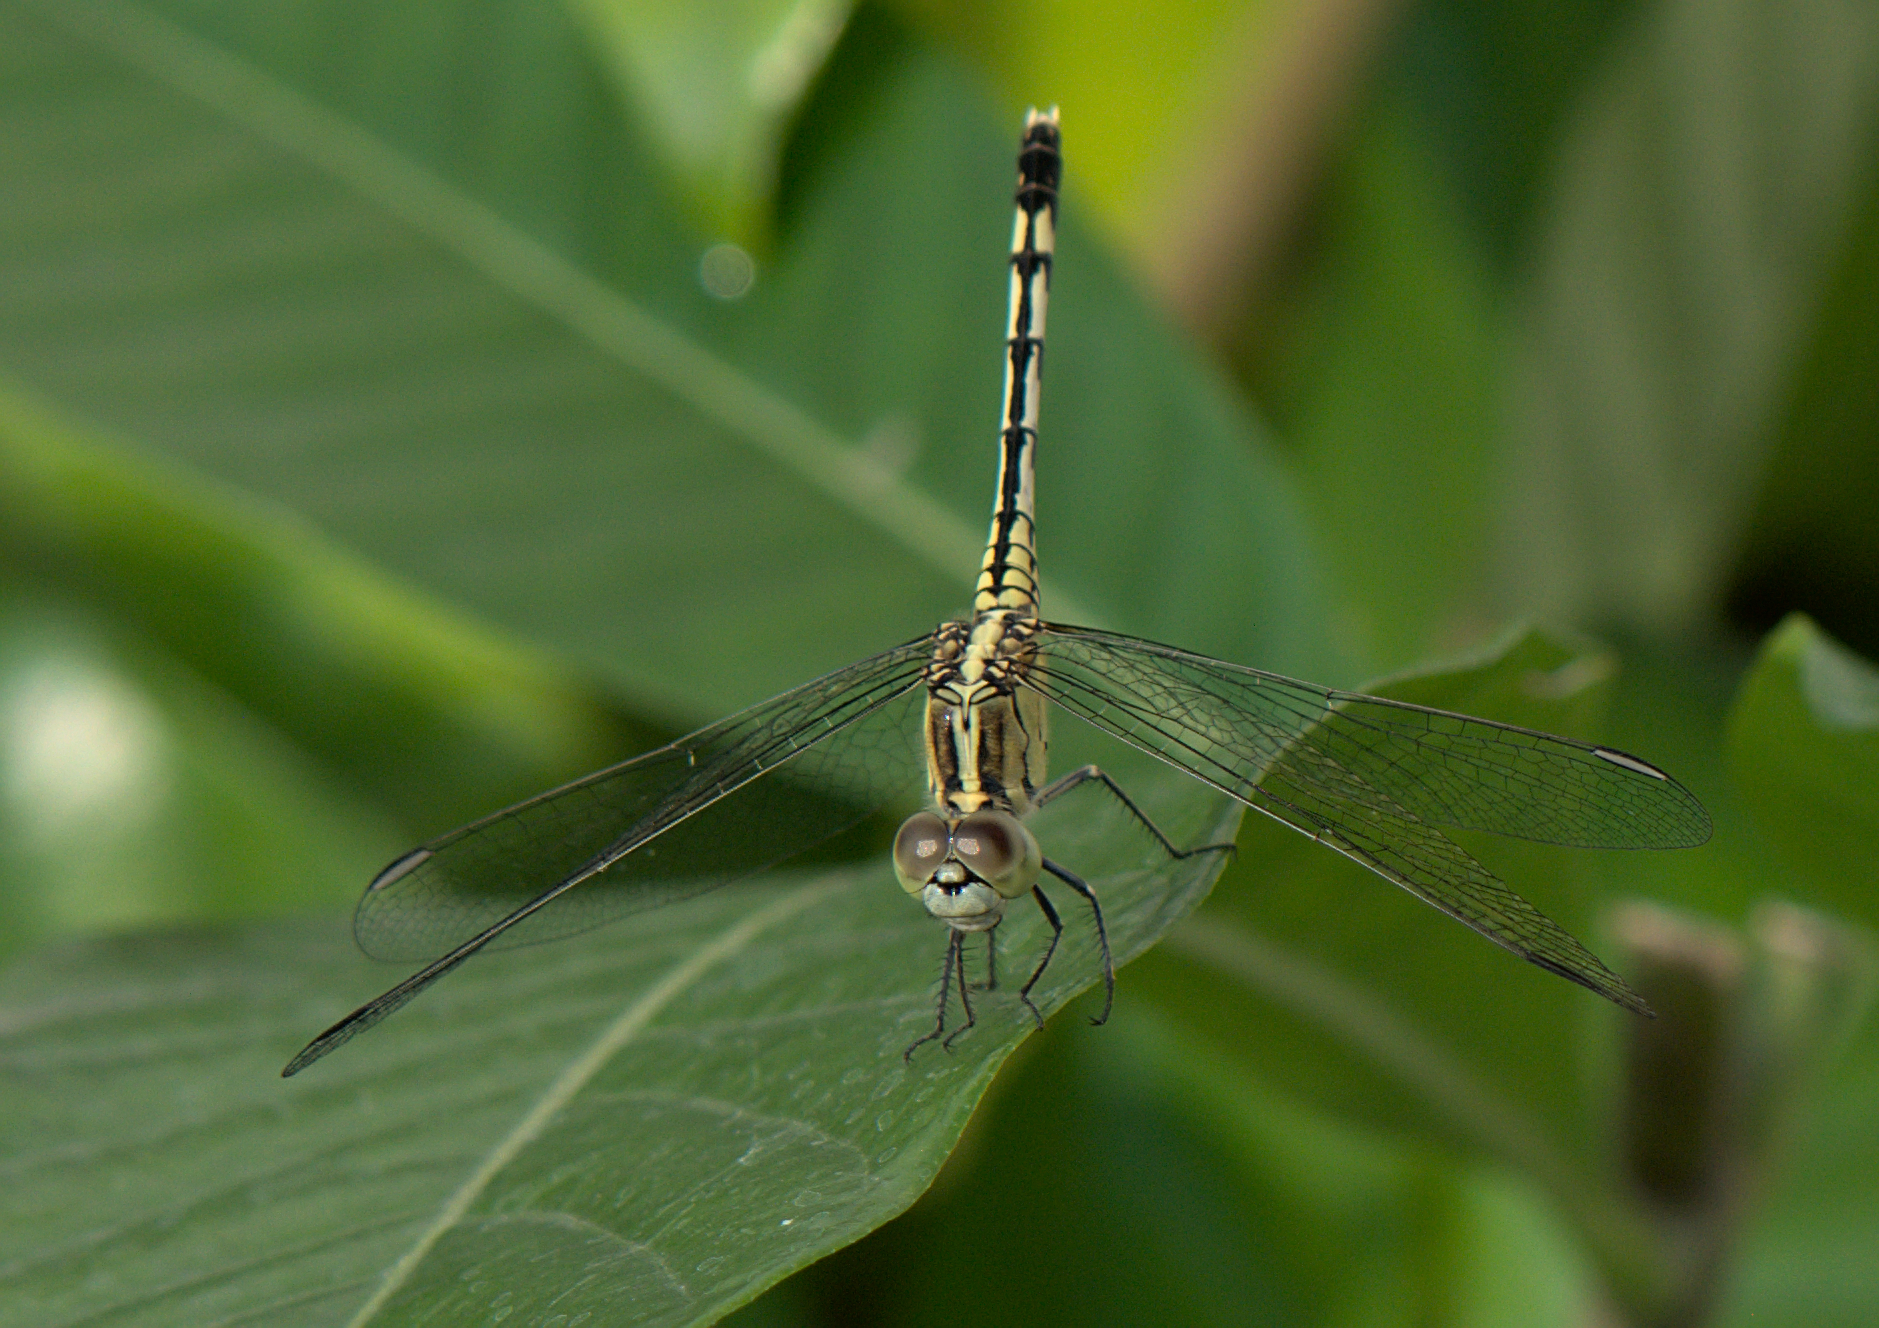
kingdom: Animalia
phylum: Arthropoda
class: Insecta
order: Odonata
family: Libellulidae
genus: Diplacodes
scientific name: Diplacodes trivialis
